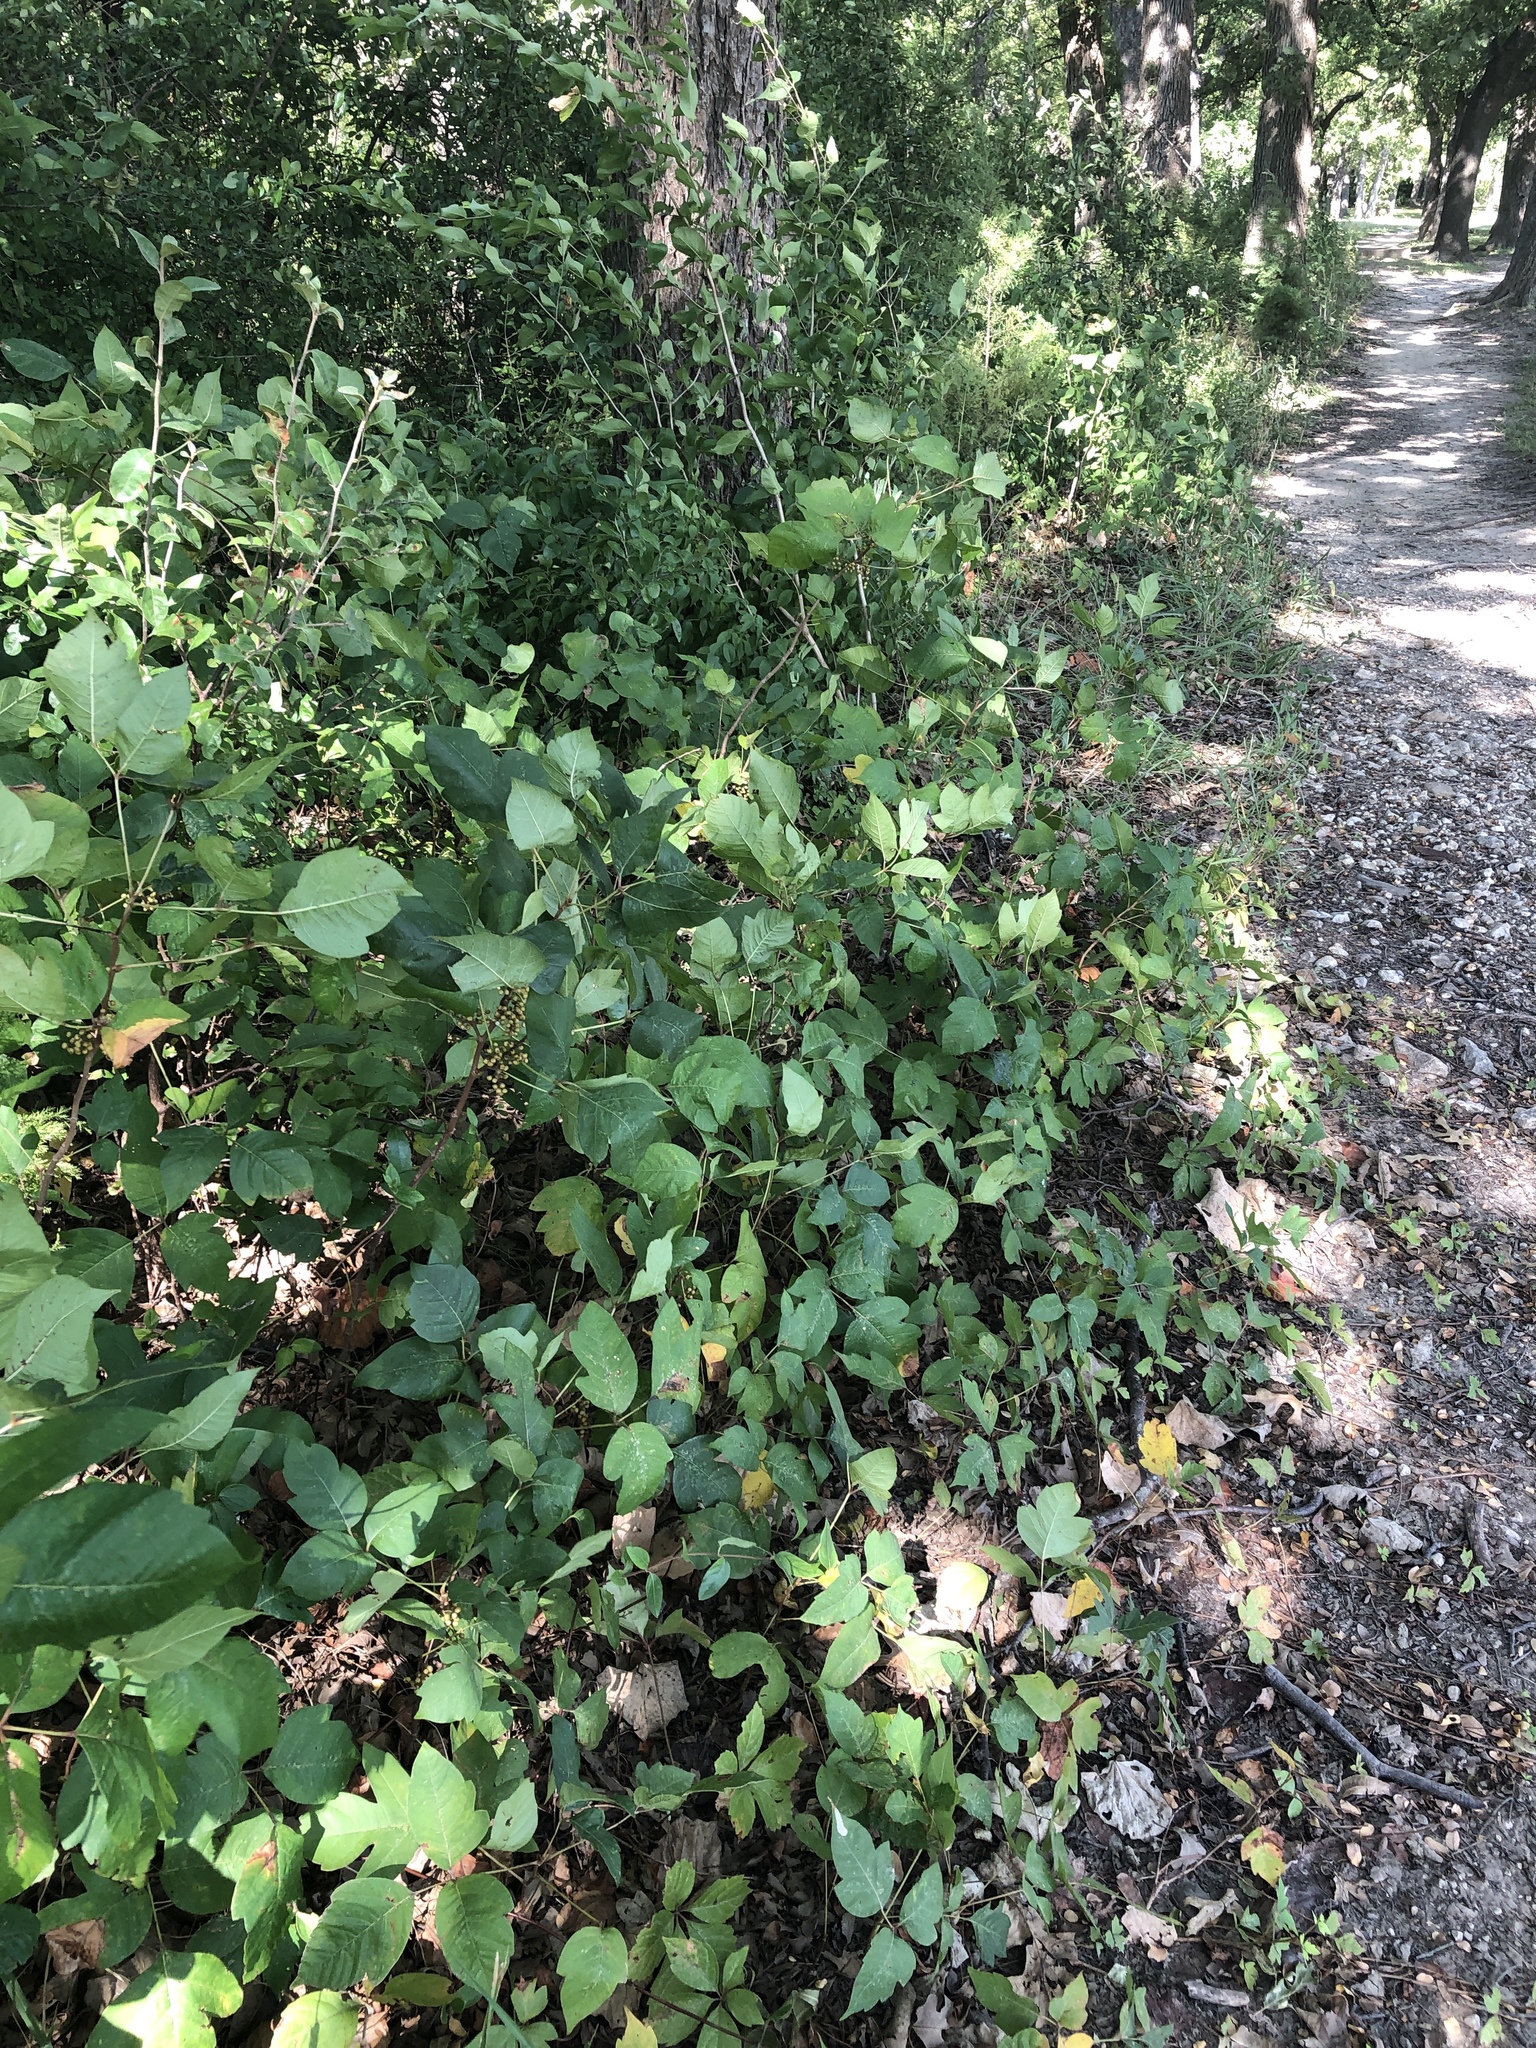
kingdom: Plantae
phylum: Tracheophyta
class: Magnoliopsida
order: Sapindales
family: Anacardiaceae
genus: Toxicodendron
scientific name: Toxicodendron radicans
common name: Poison ivy
